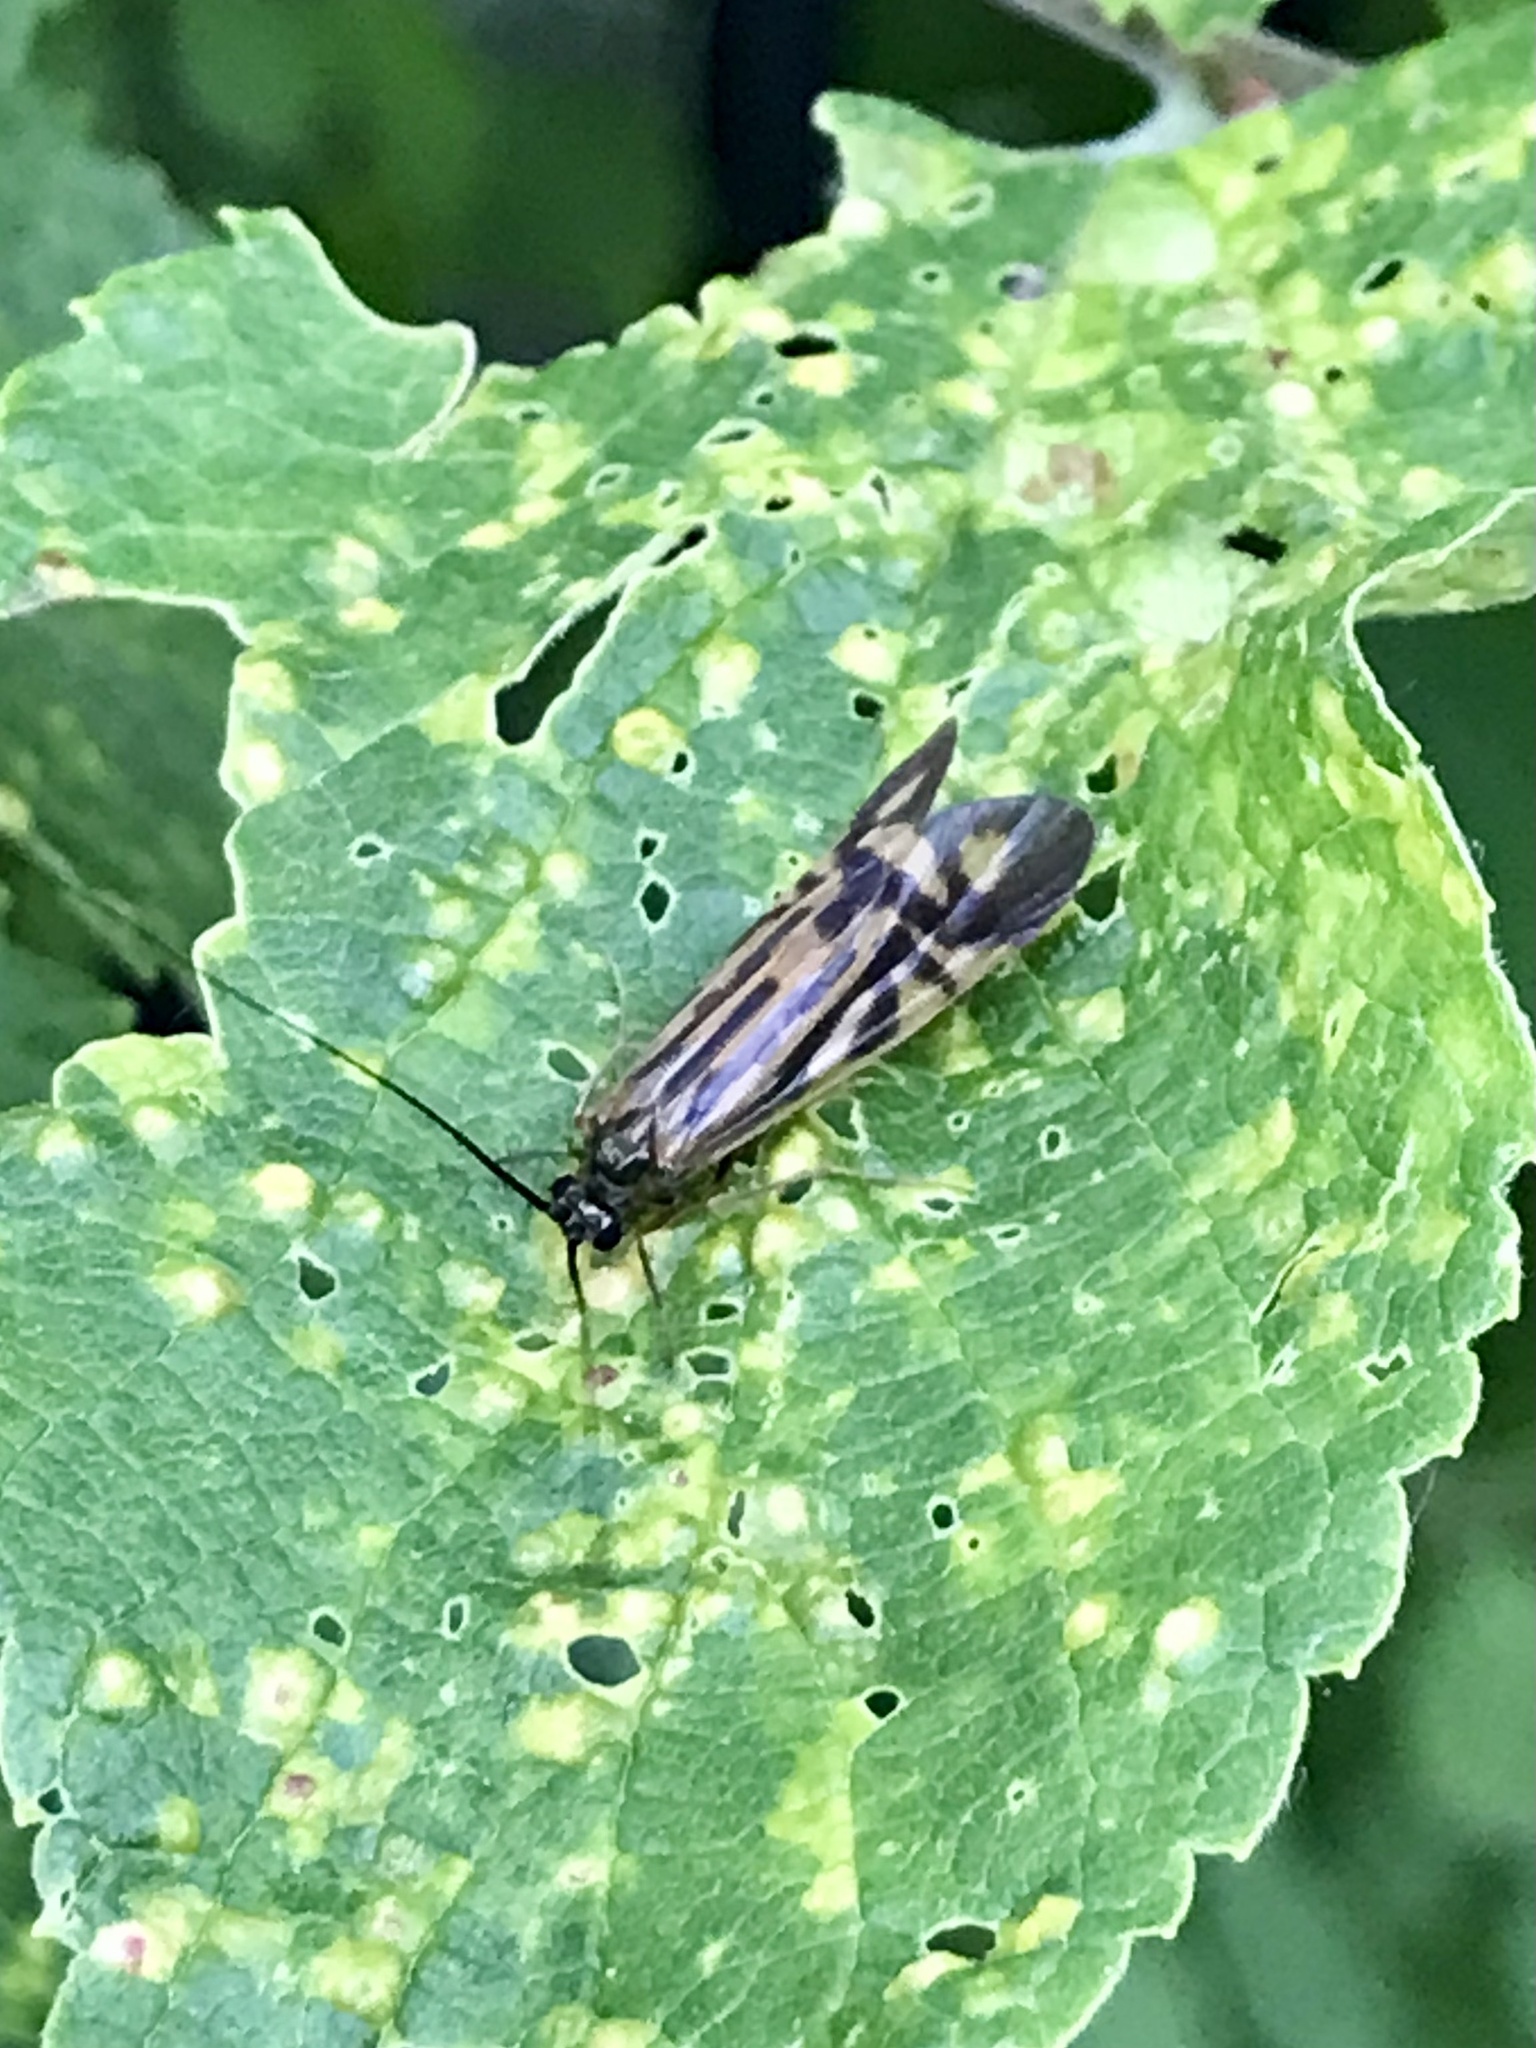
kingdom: Animalia
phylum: Arthropoda
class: Insecta
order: Trichoptera
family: Hydropsychidae
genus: Macrostemum
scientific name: Macrostemum zebratum
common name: Zebra caddisfly
